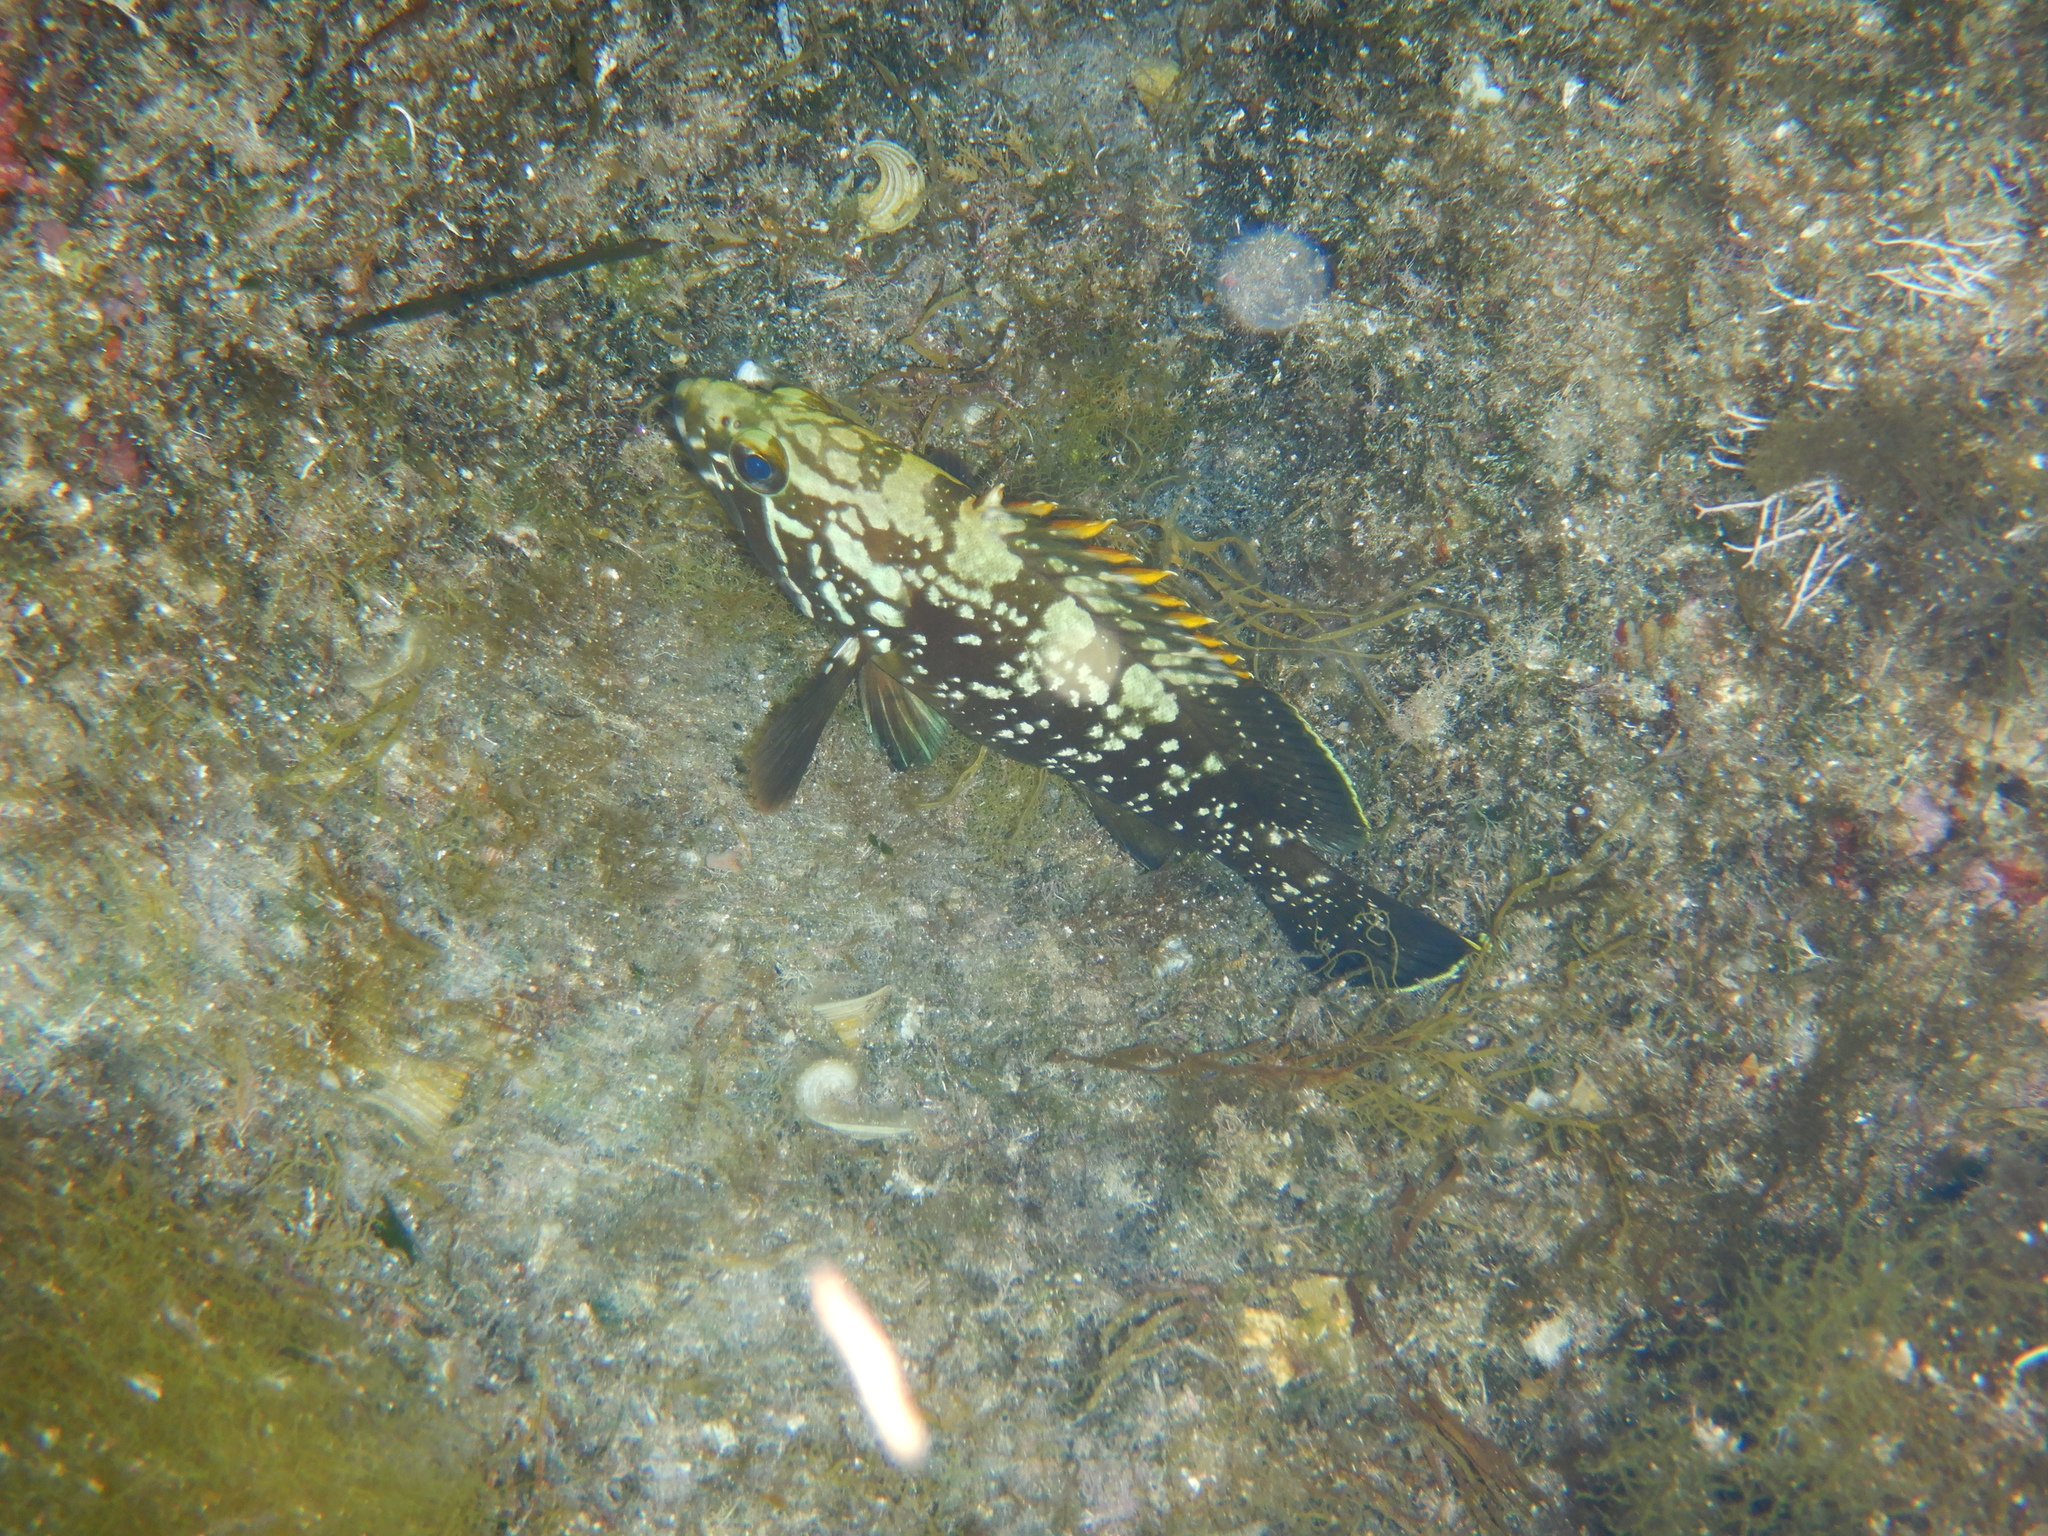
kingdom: Animalia
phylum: Chordata
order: Perciformes
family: Serranidae
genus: Epinephelus
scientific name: Epinephelus marginatus
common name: Dusky grouper
